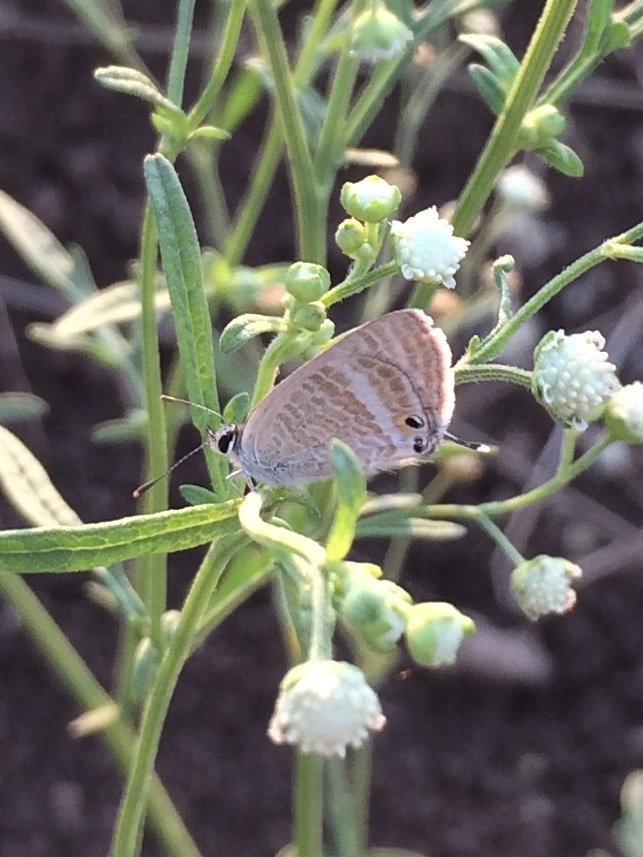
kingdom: Animalia
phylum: Arthropoda
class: Insecta
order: Lepidoptera
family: Lycaenidae
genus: Lampides
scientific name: Lampides boeticus
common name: Long-tailed blue
